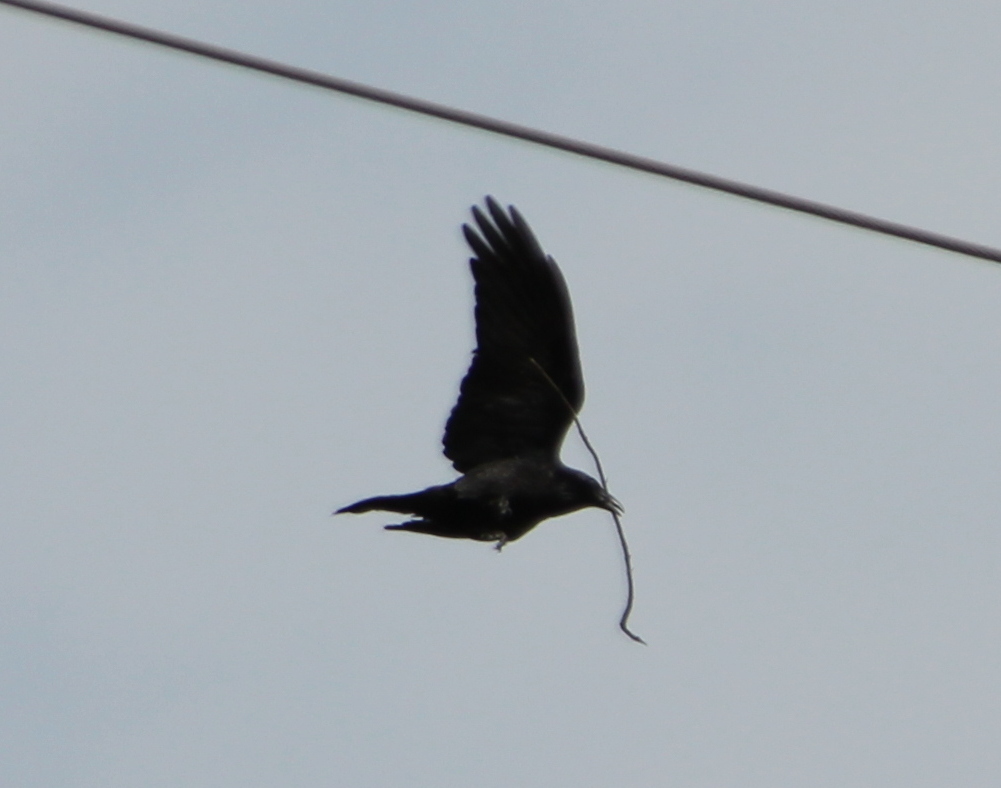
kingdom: Animalia
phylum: Chordata
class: Aves
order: Passeriformes
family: Corvidae
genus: Corvus
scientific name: Corvus corax
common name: Common raven
